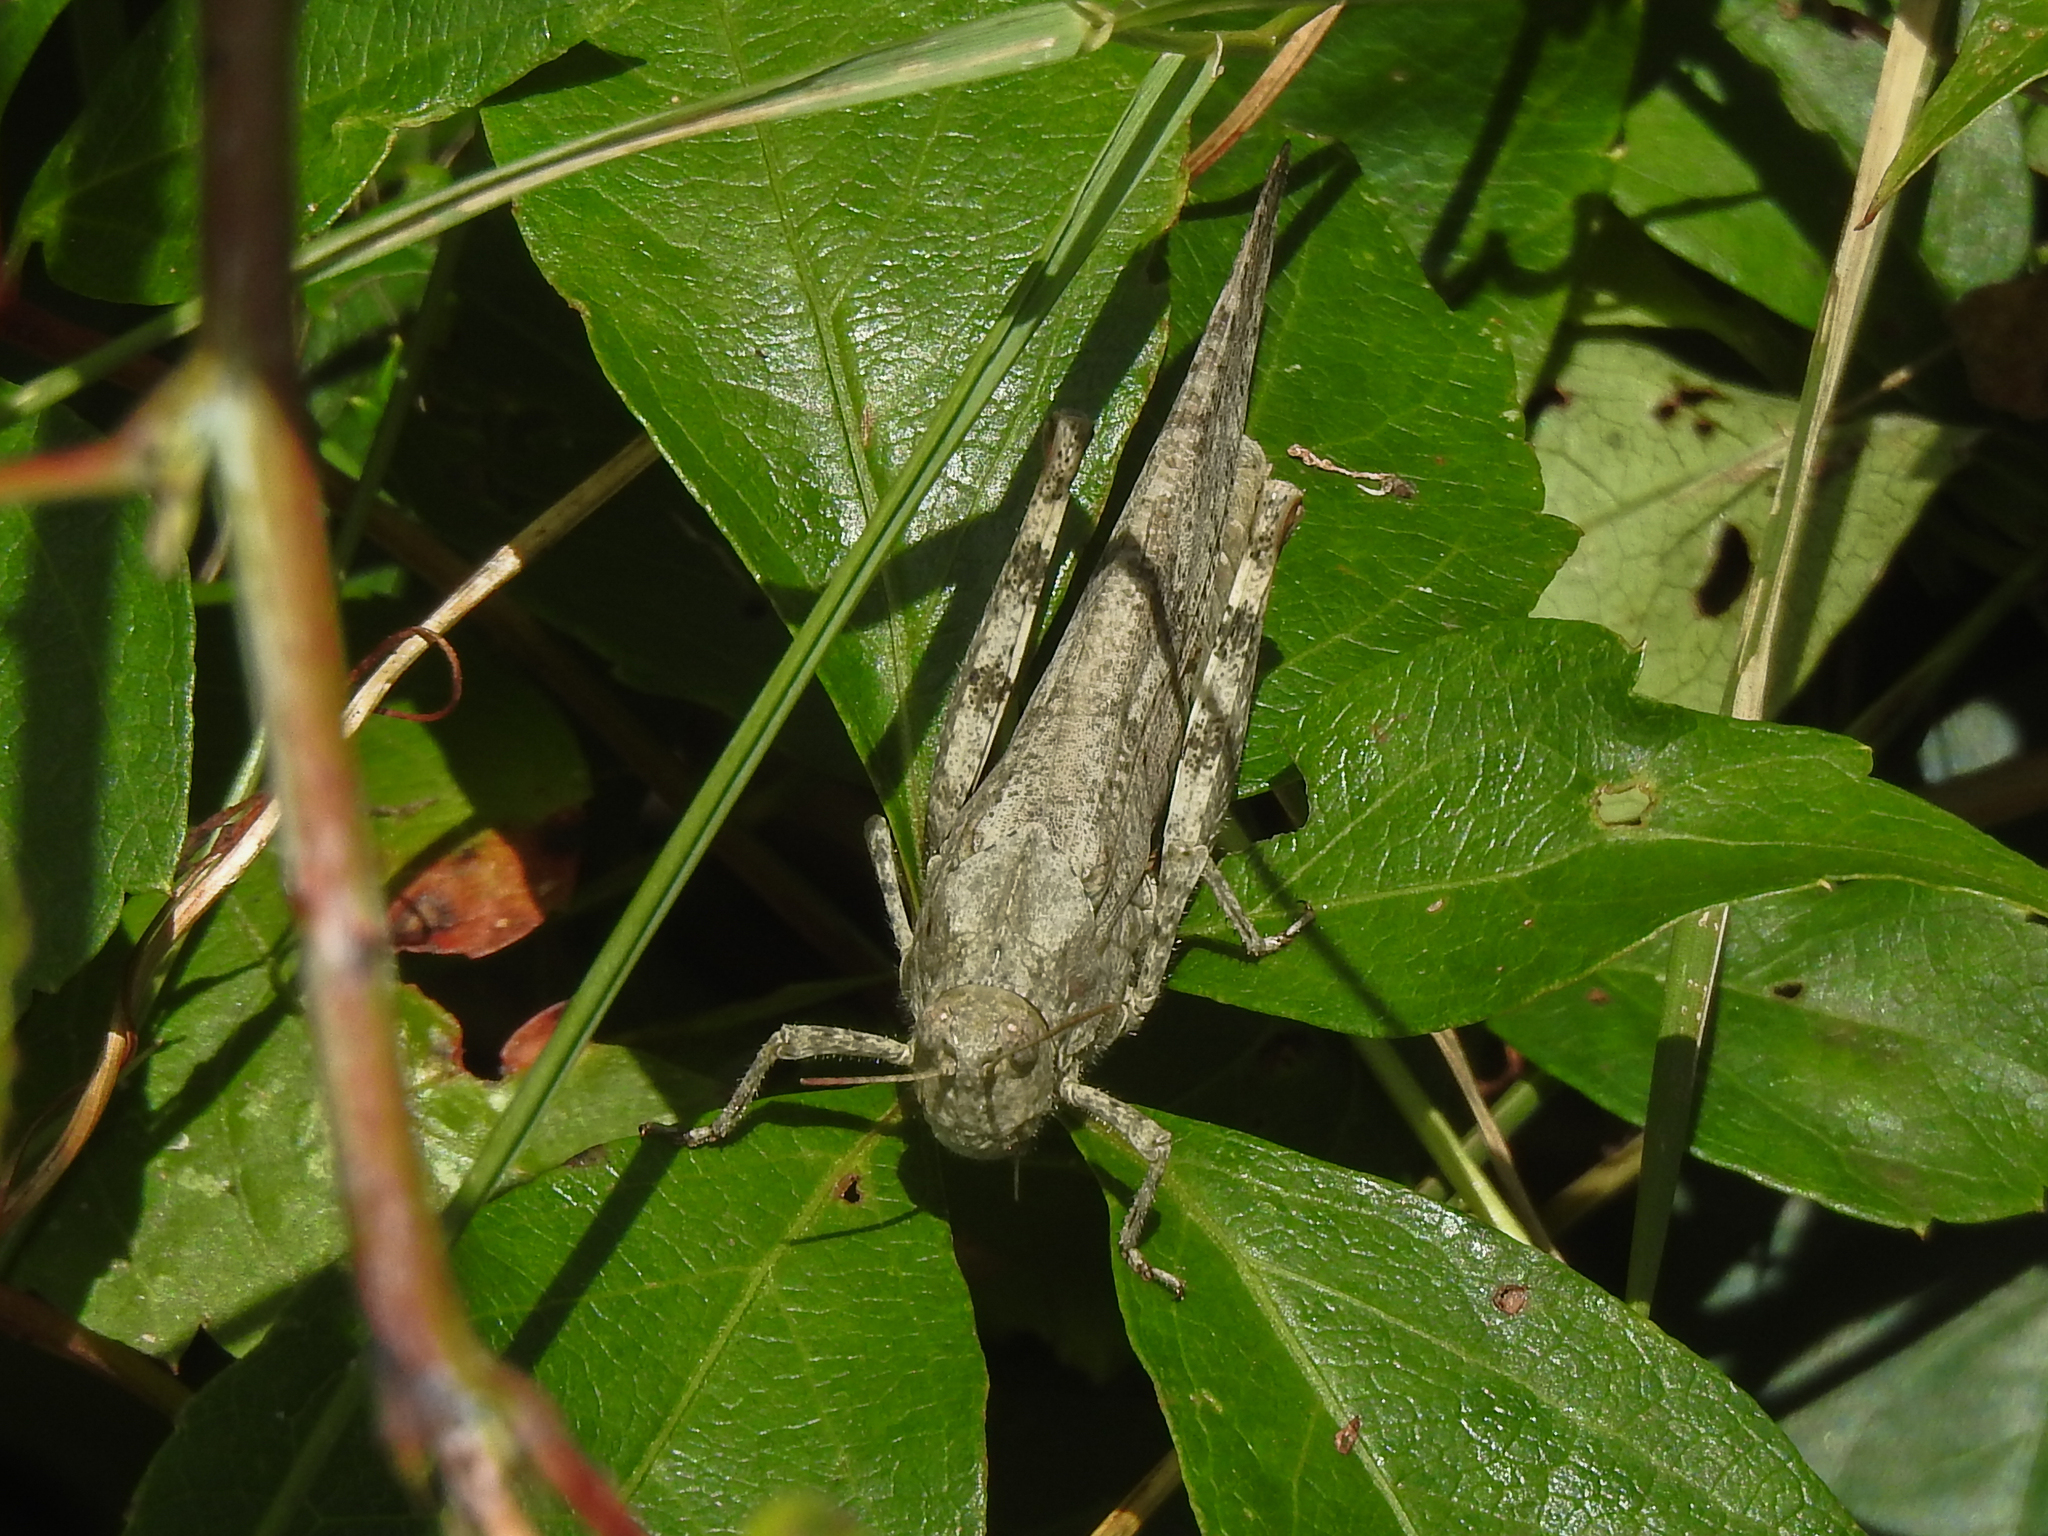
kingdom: Animalia
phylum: Arthropoda
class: Insecta
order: Orthoptera
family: Acrididae
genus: Dissosteira
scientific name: Dissosteira carolina
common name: Carolina grasshopper
